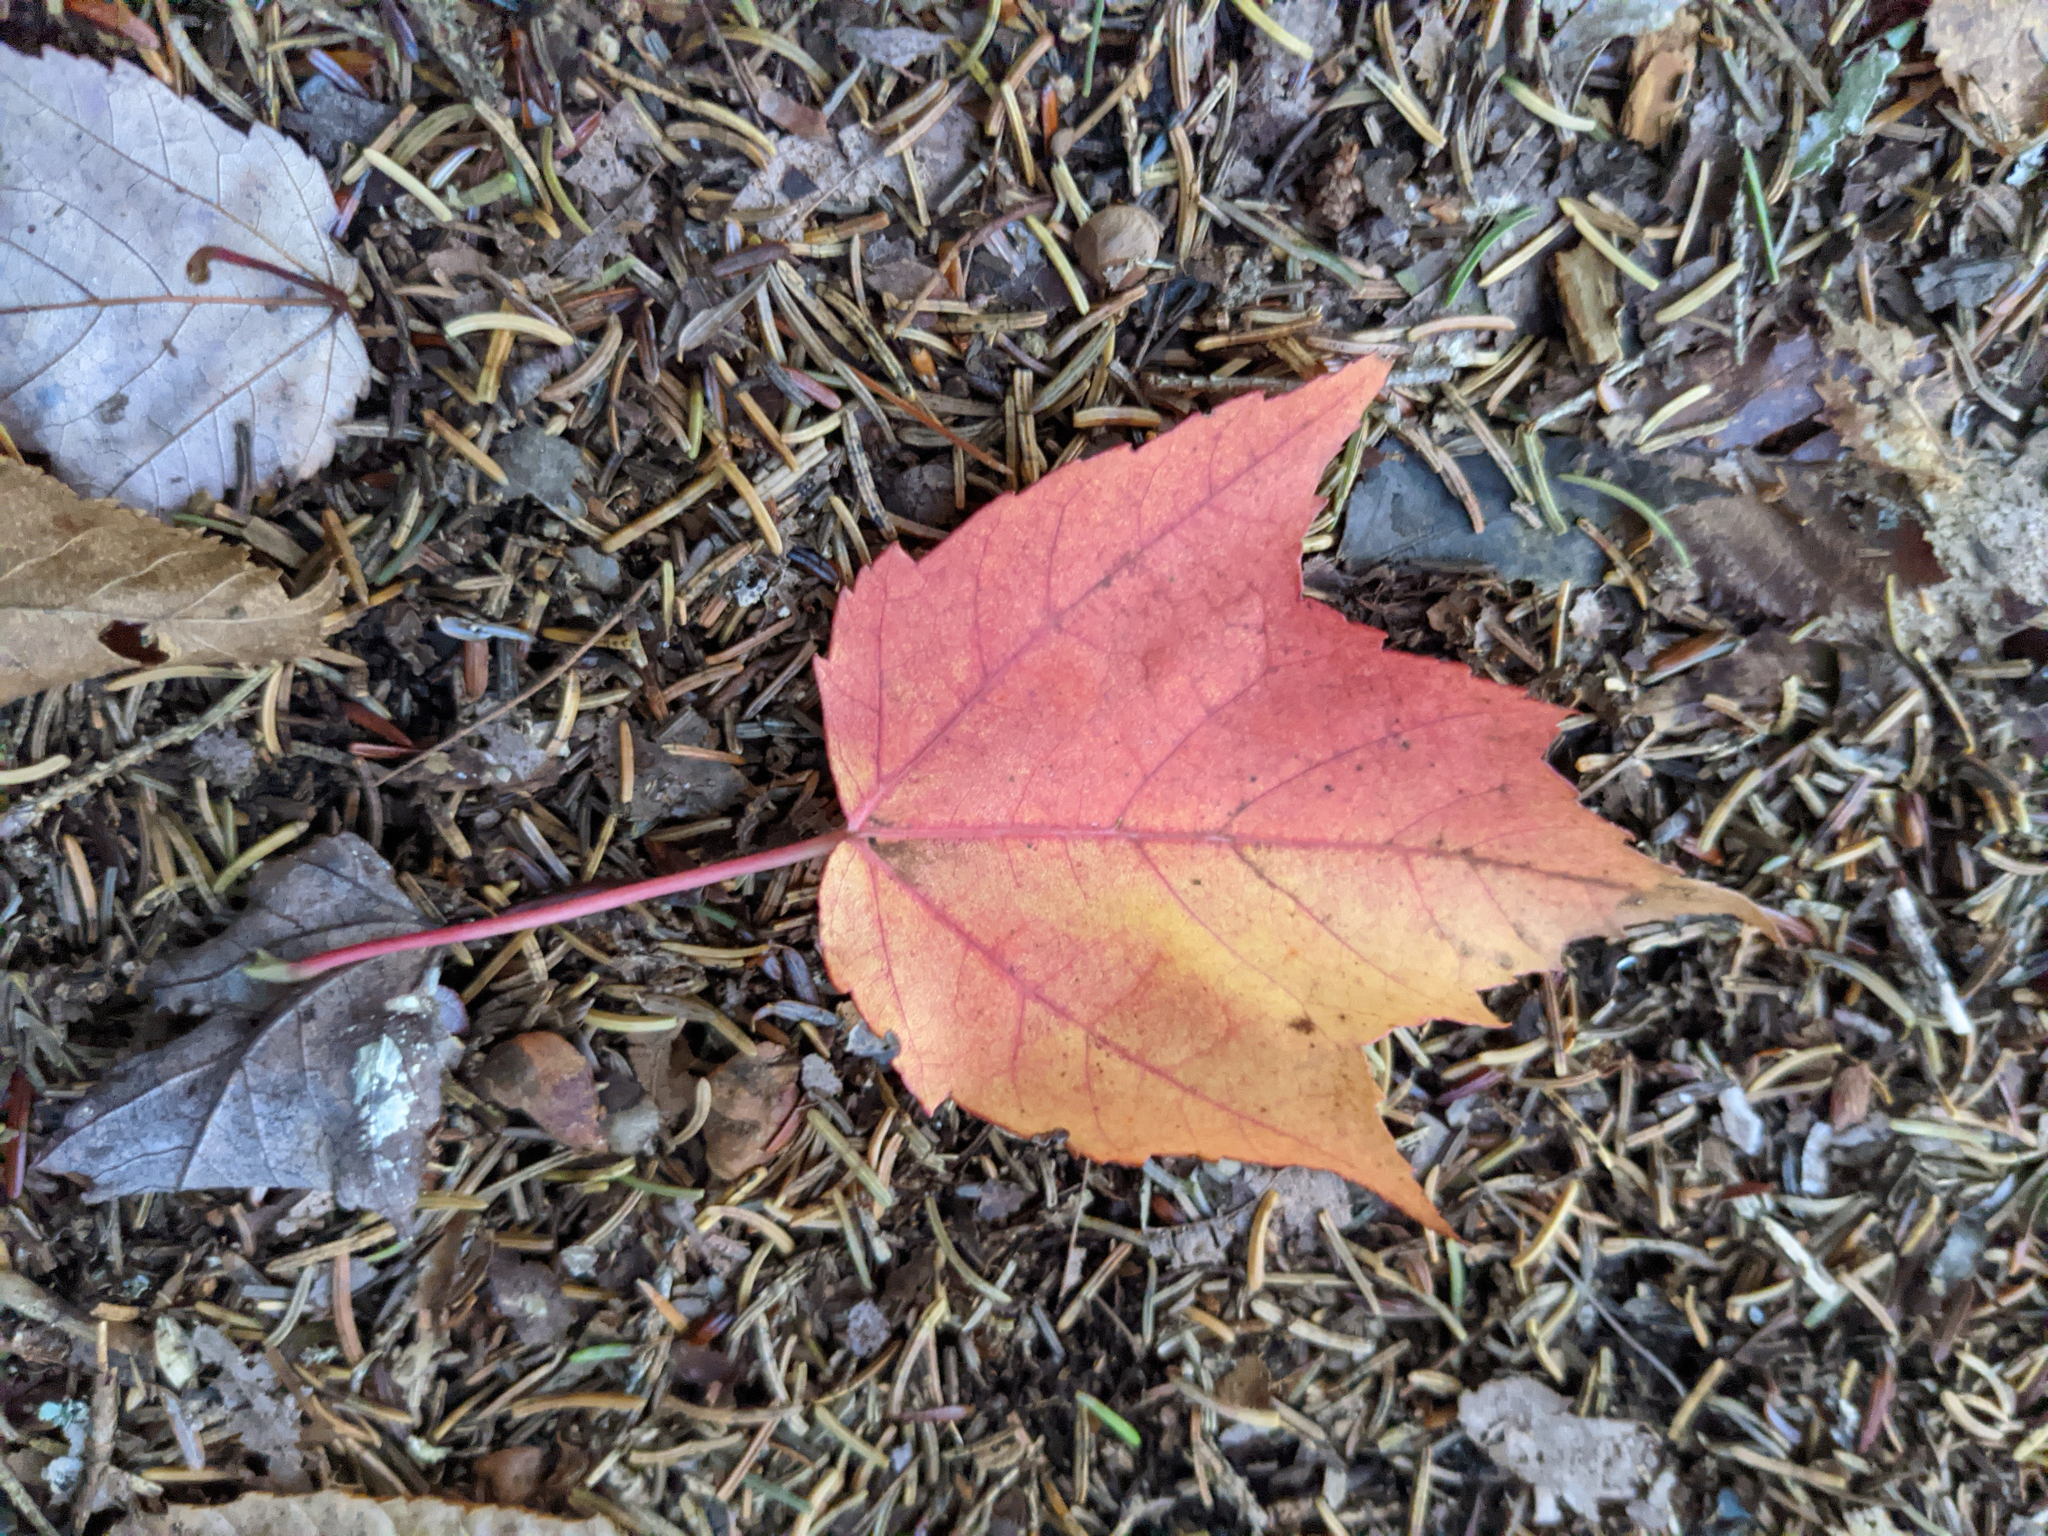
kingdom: Plantae
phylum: Tracheophyta
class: Magnoliopsida
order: Sapindales
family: Sapindaceae
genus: Acer
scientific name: Acer rubrum
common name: Red maple
